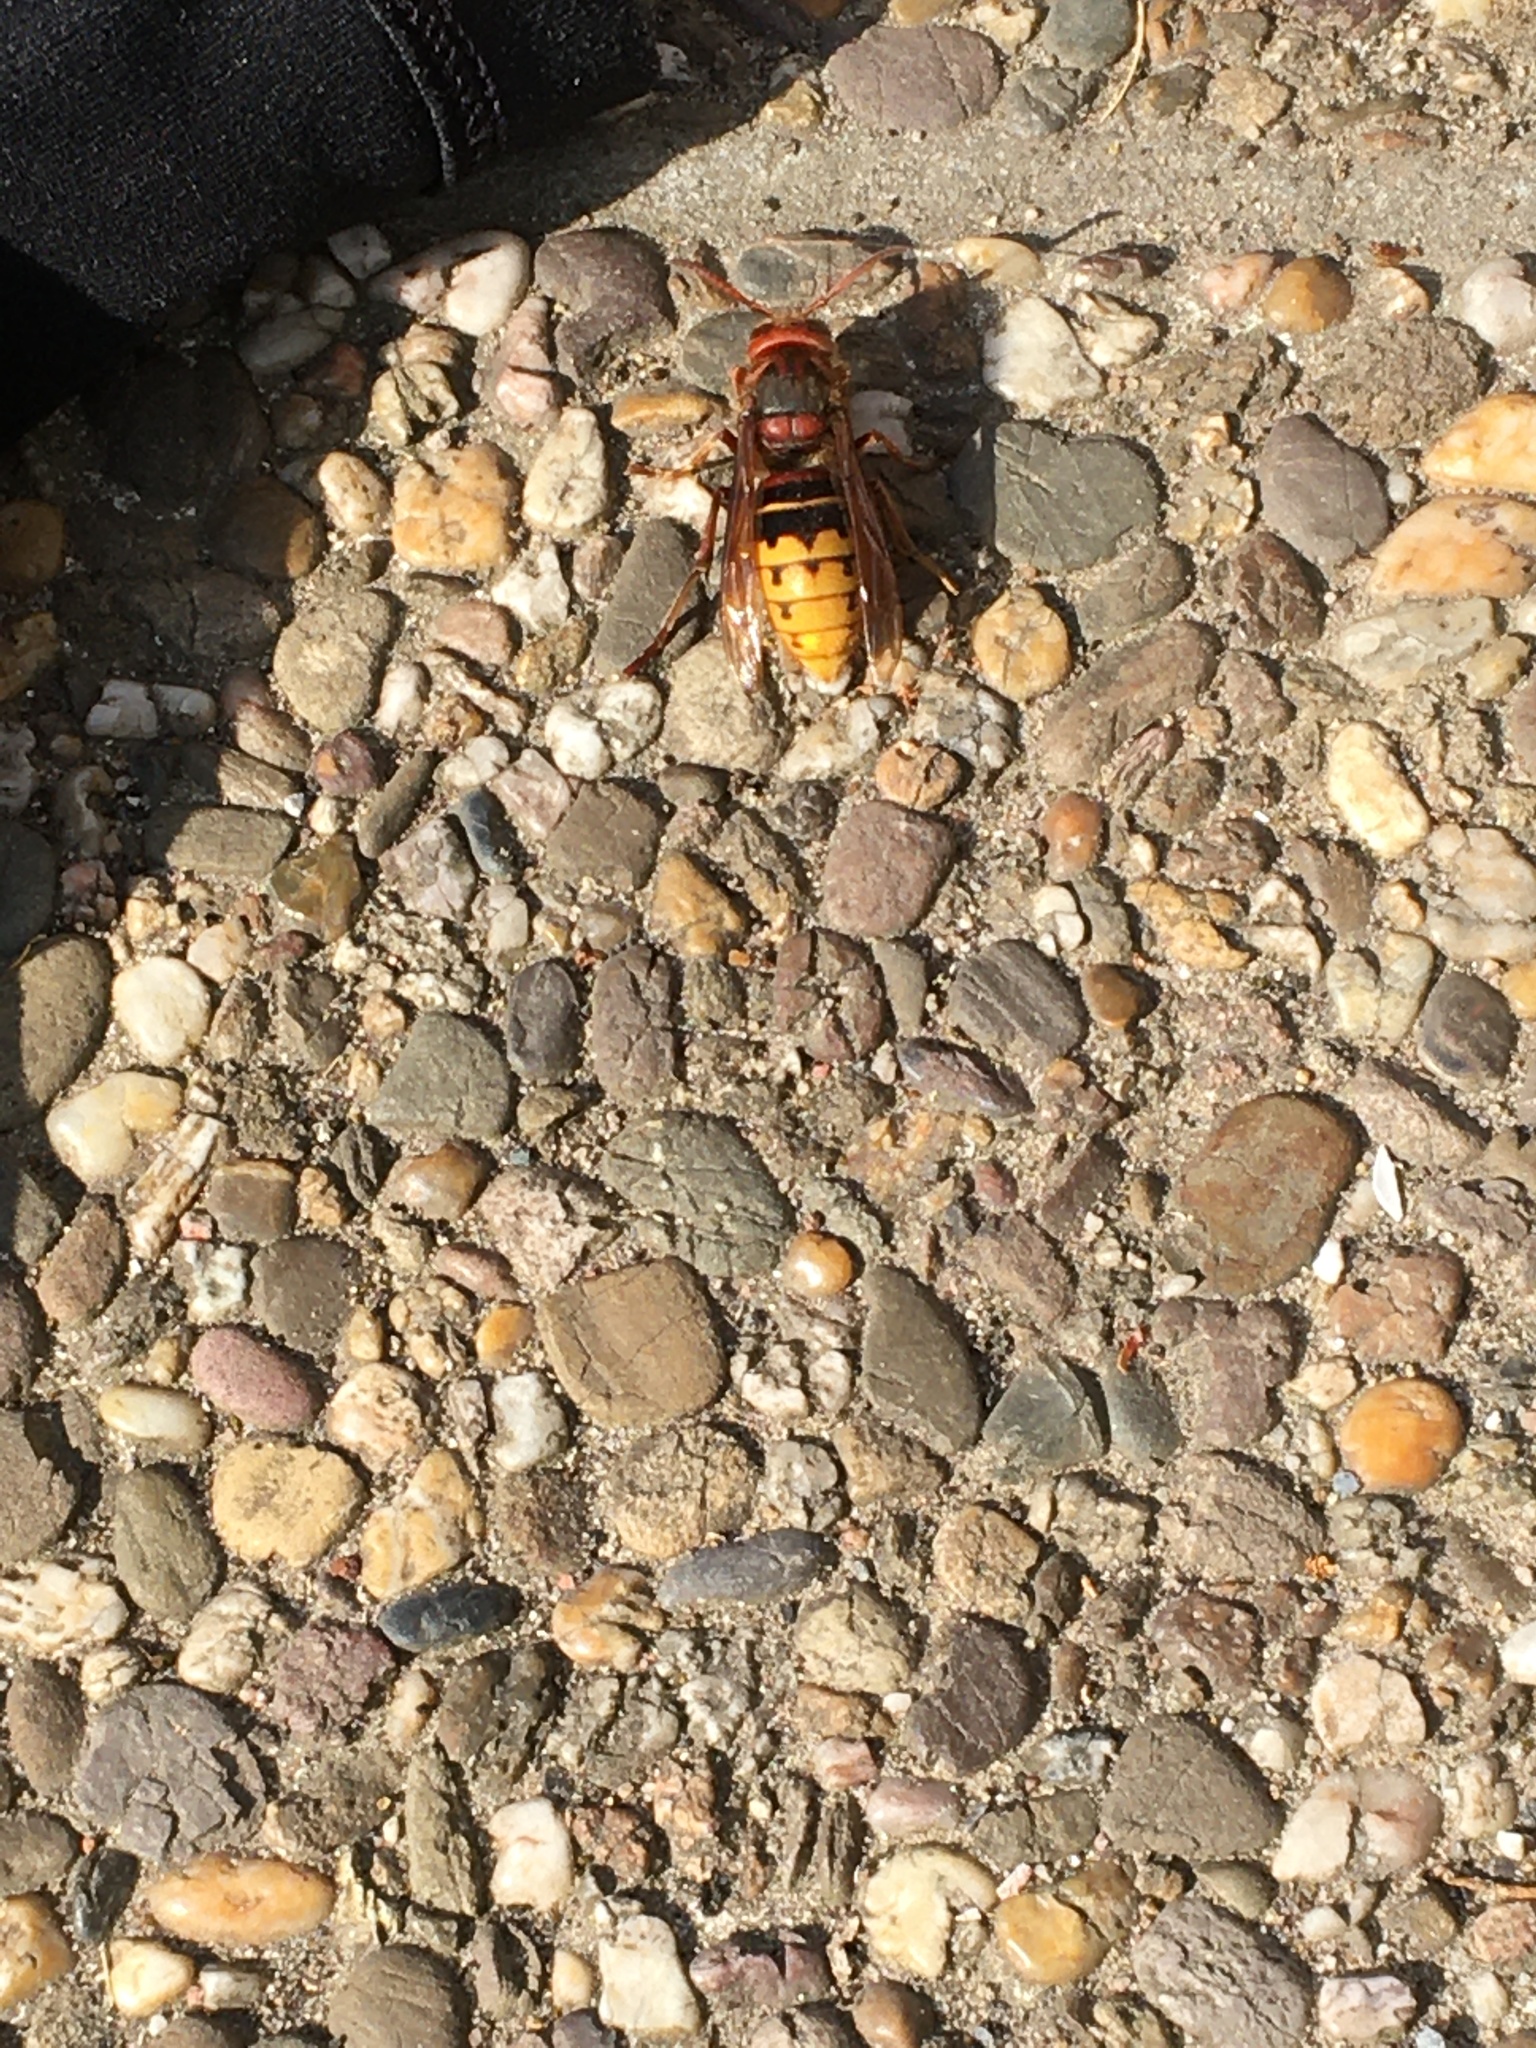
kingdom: Animalia
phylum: Arthropoda
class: Insecta
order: Hymenoptera
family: Vespidae
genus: Vespa
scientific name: Vespa crabro
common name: Hornet
